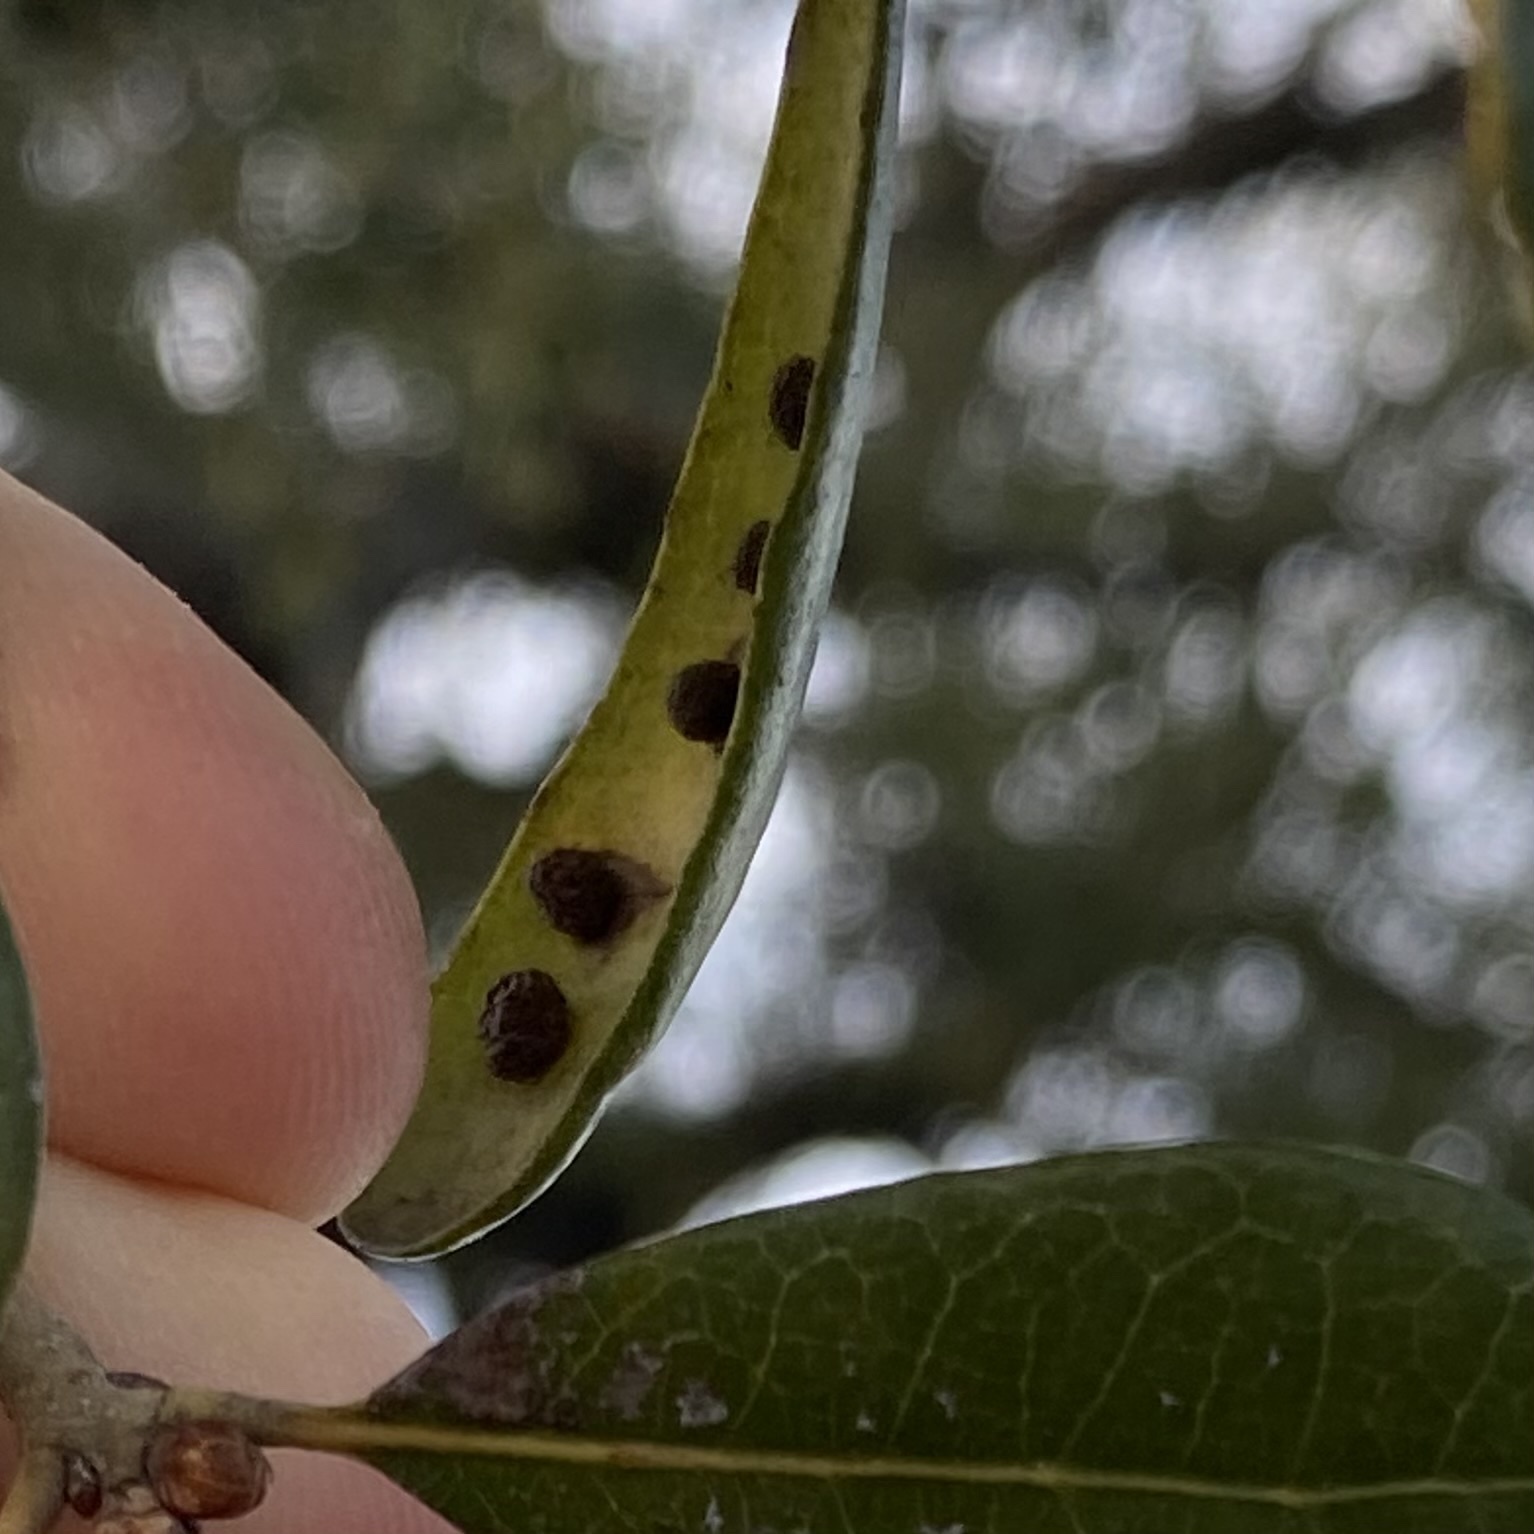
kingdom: Animalia
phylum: Arthropoda
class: Insecta
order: Hymenoptera
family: Cynipidae
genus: Belonocnema
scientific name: Belonocnema kinseyi
